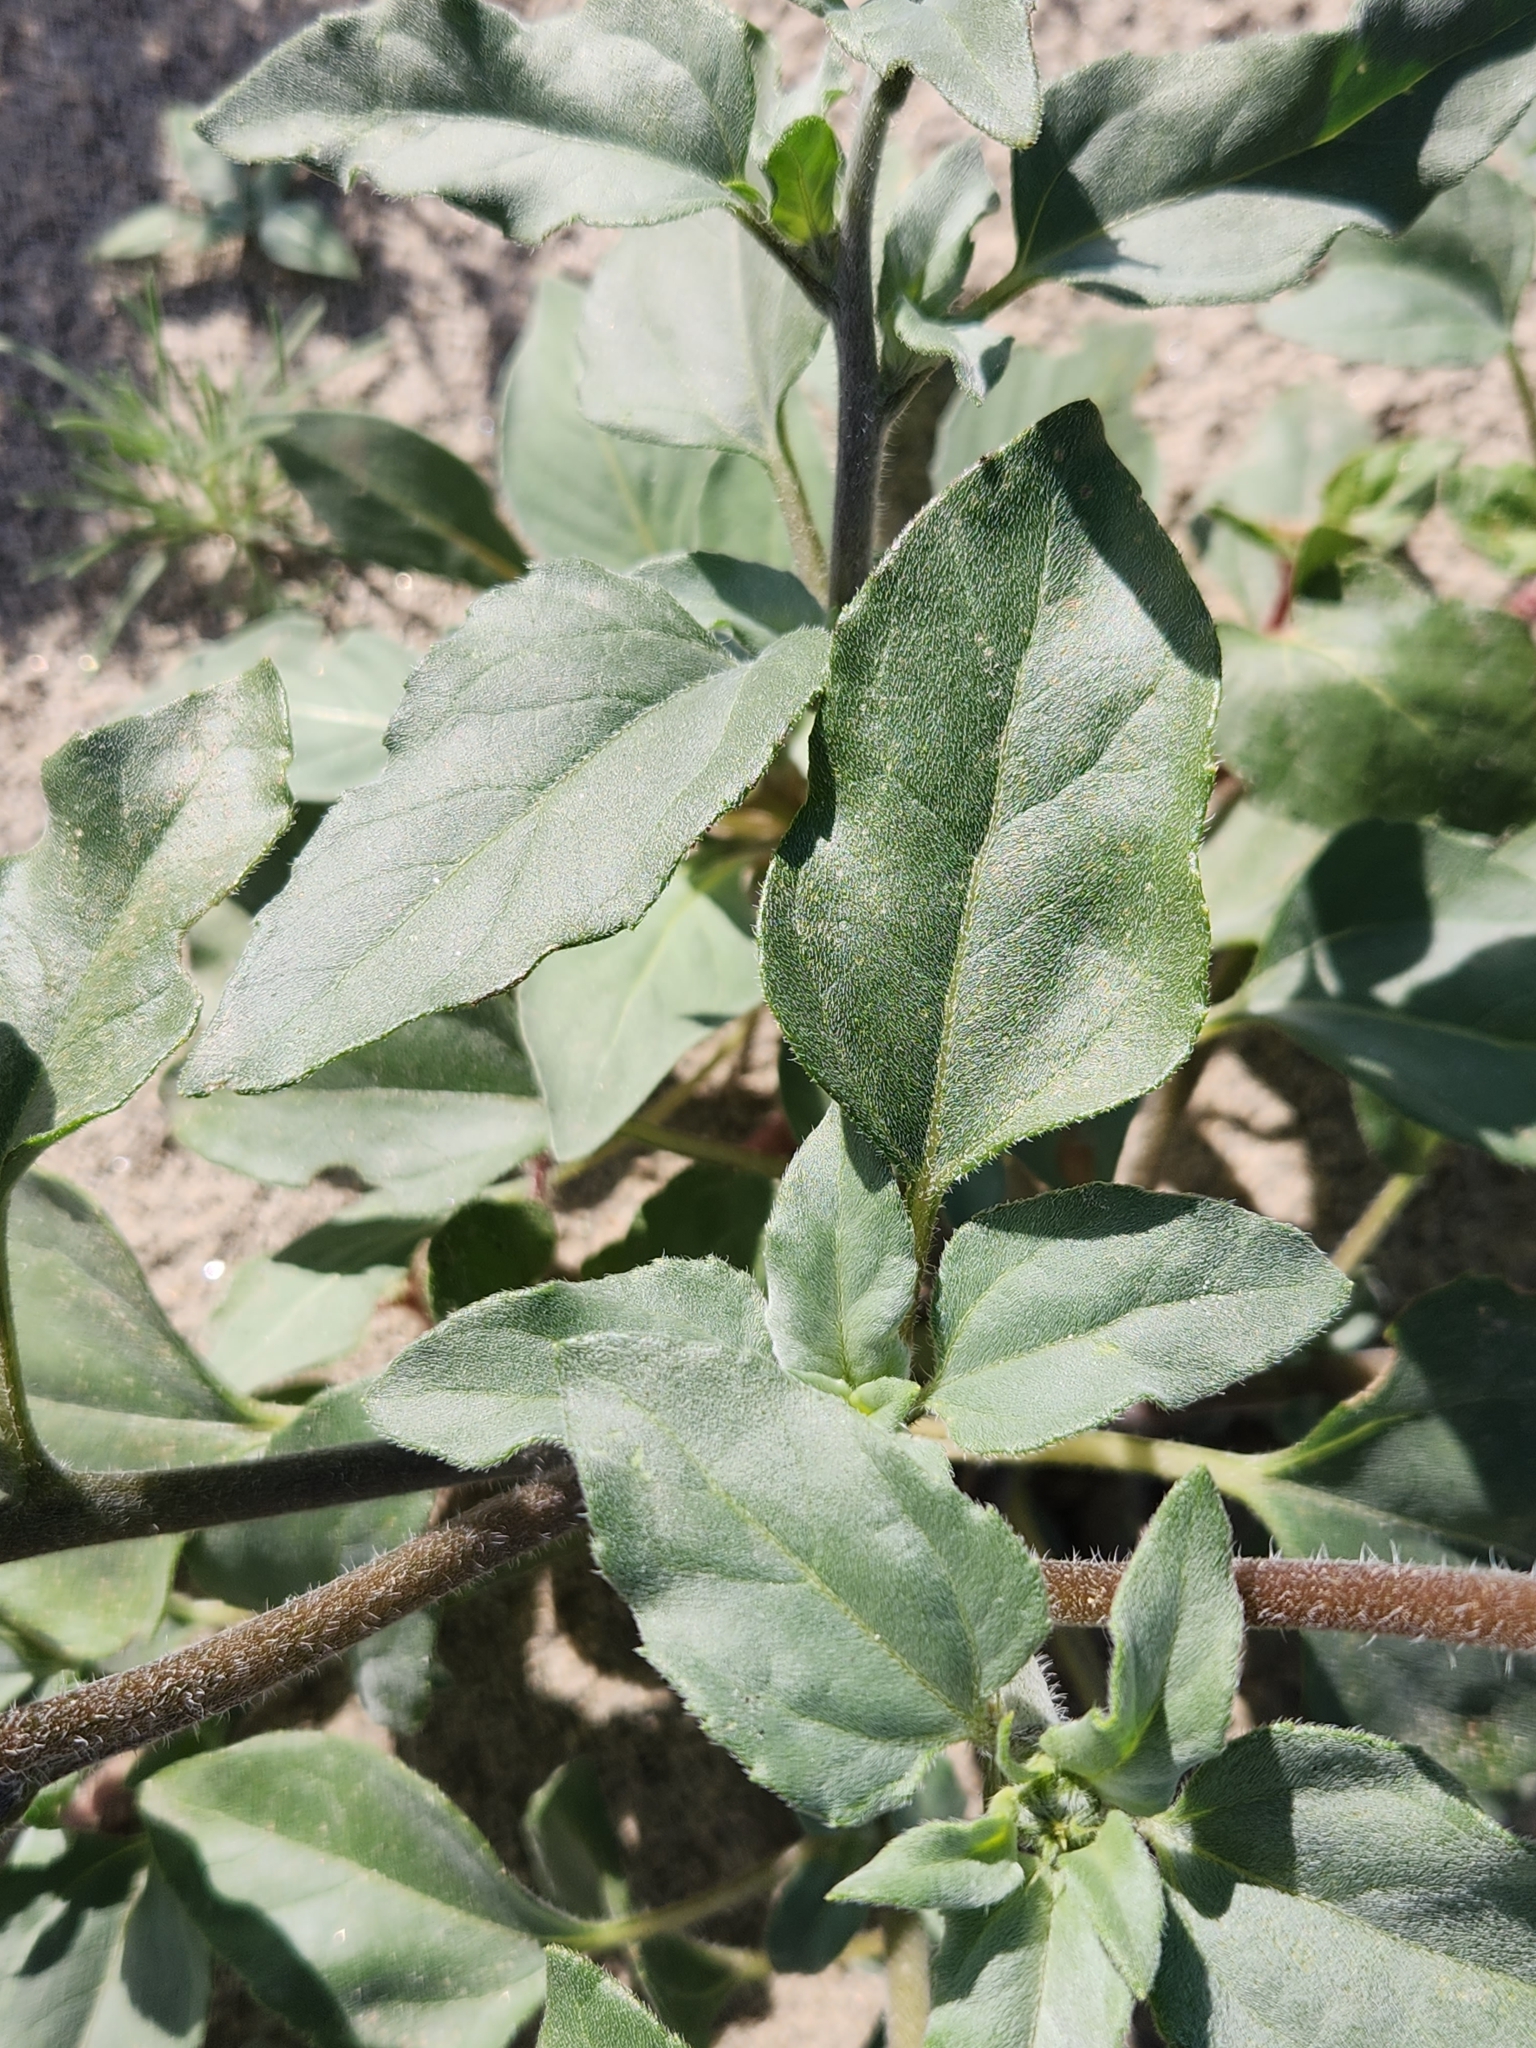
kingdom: Plantae
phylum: Tracheophyta
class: Magnoliopsida
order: Asterales
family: Asteraceae
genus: Helianthus
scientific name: Helianthus petiolaris
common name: Lesser sunflower
